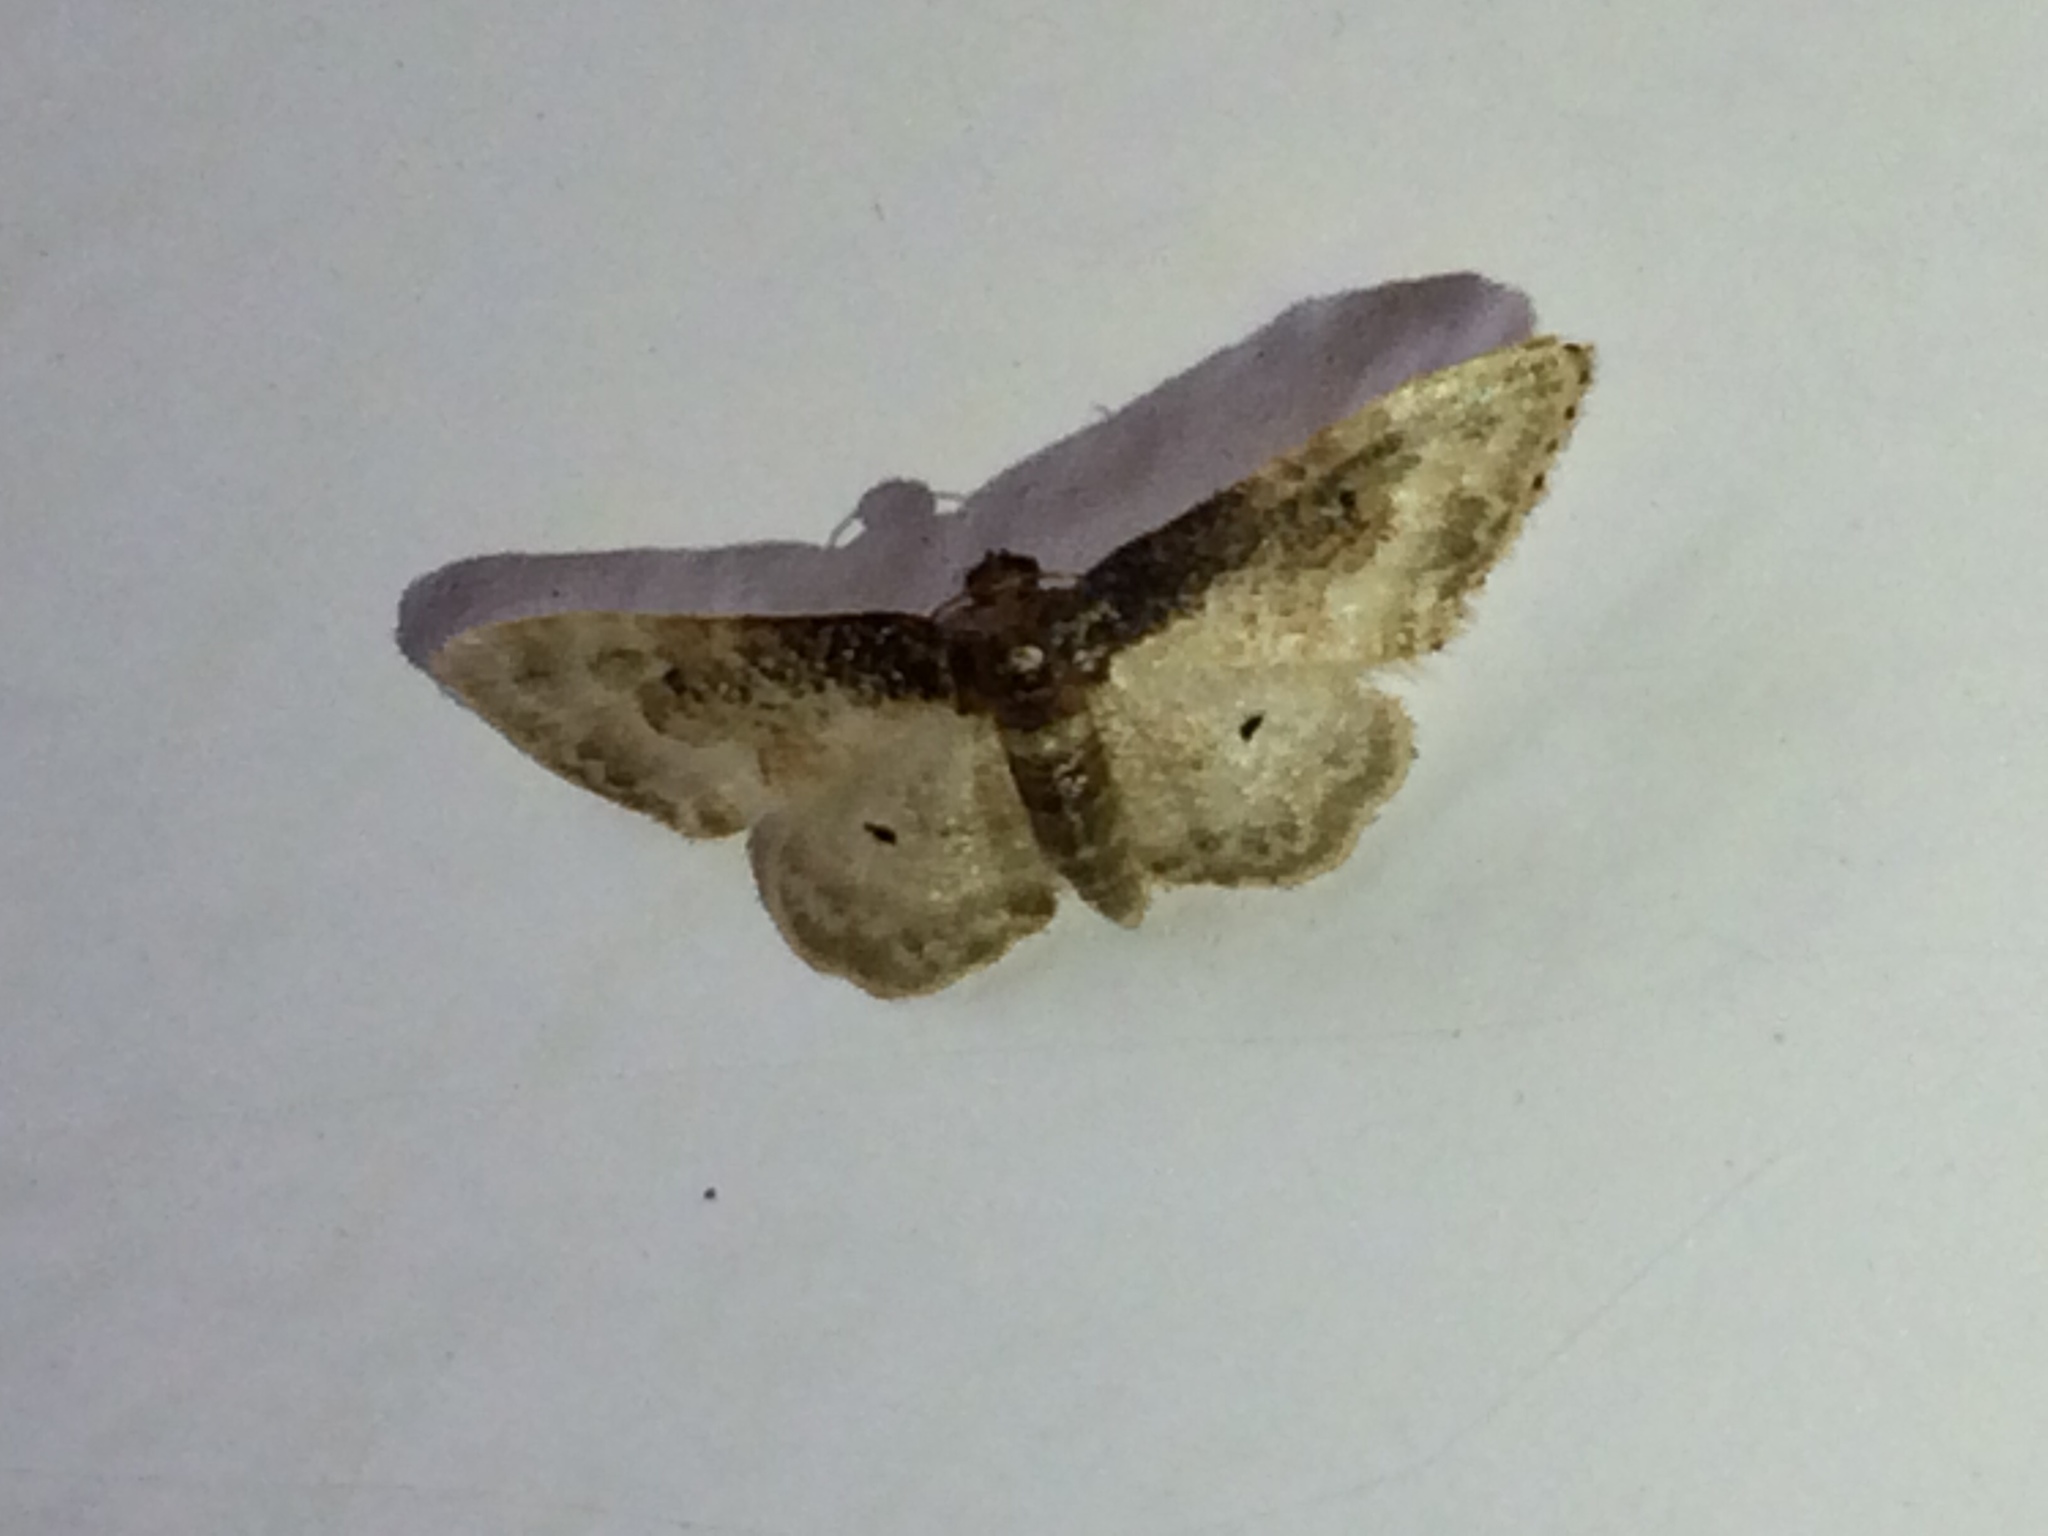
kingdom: Animalia
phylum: Arthropoda
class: Insecta
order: Lepidoptera
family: Geometridae
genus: Idaea
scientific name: Idaea rusticata
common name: Least carpet
